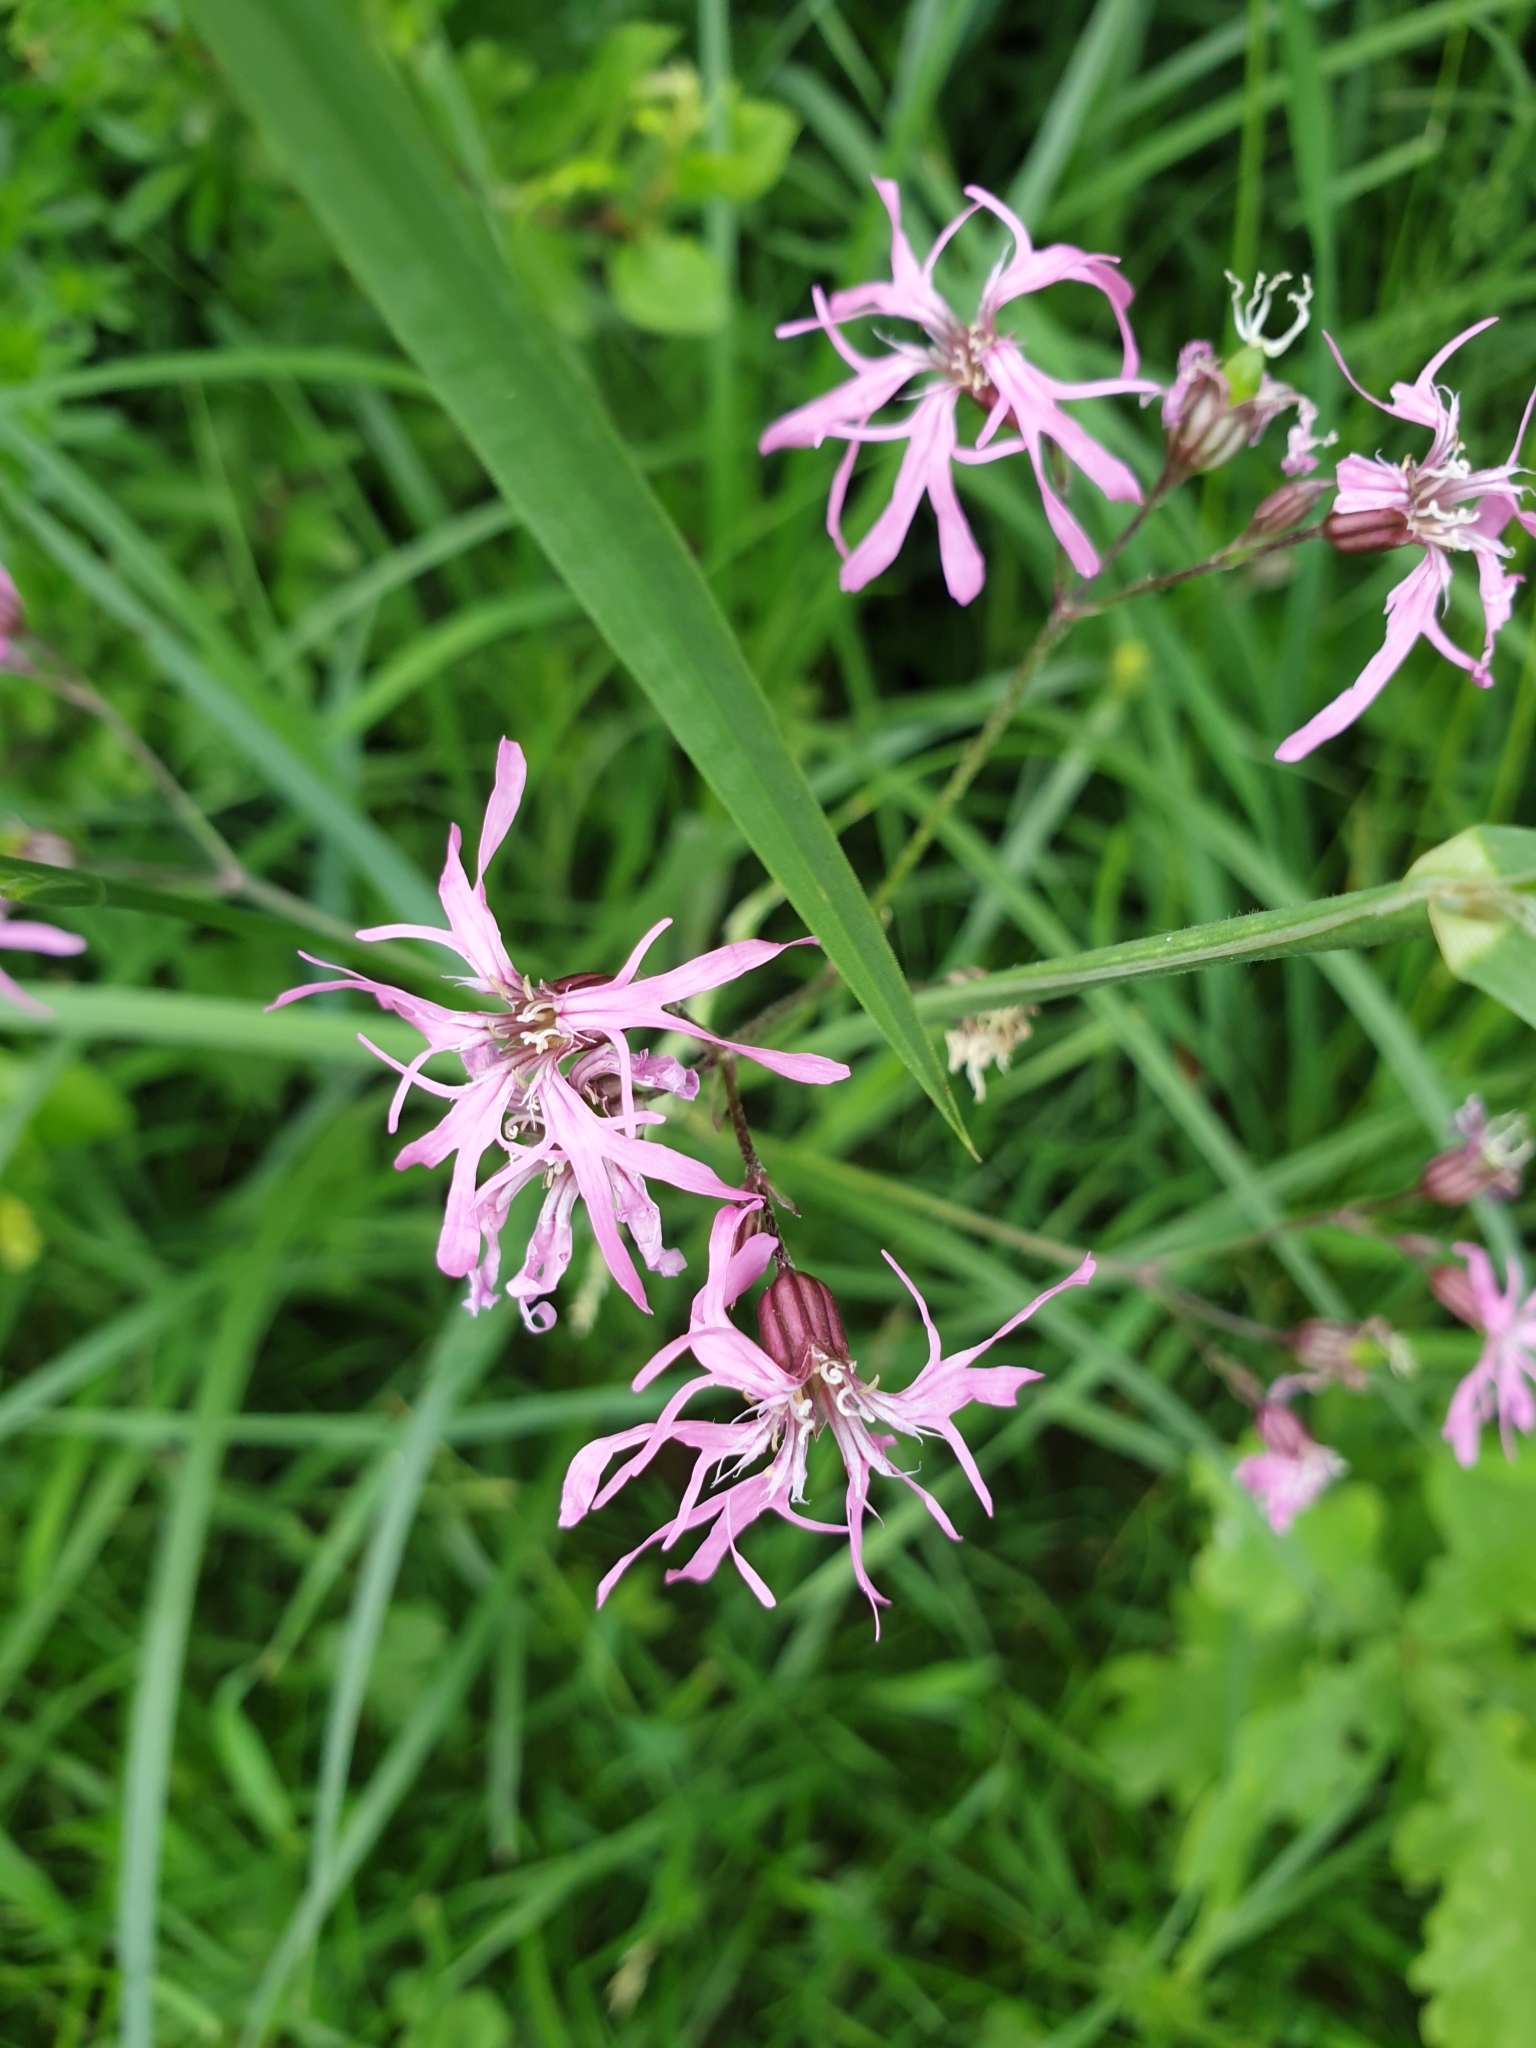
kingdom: Plantae
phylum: Tracheophyta
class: Magnoliopsida
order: Caryophyllales
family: Caryophyllaceae
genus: Silene
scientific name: Silene flos-cuculi
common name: Ragged-robin
